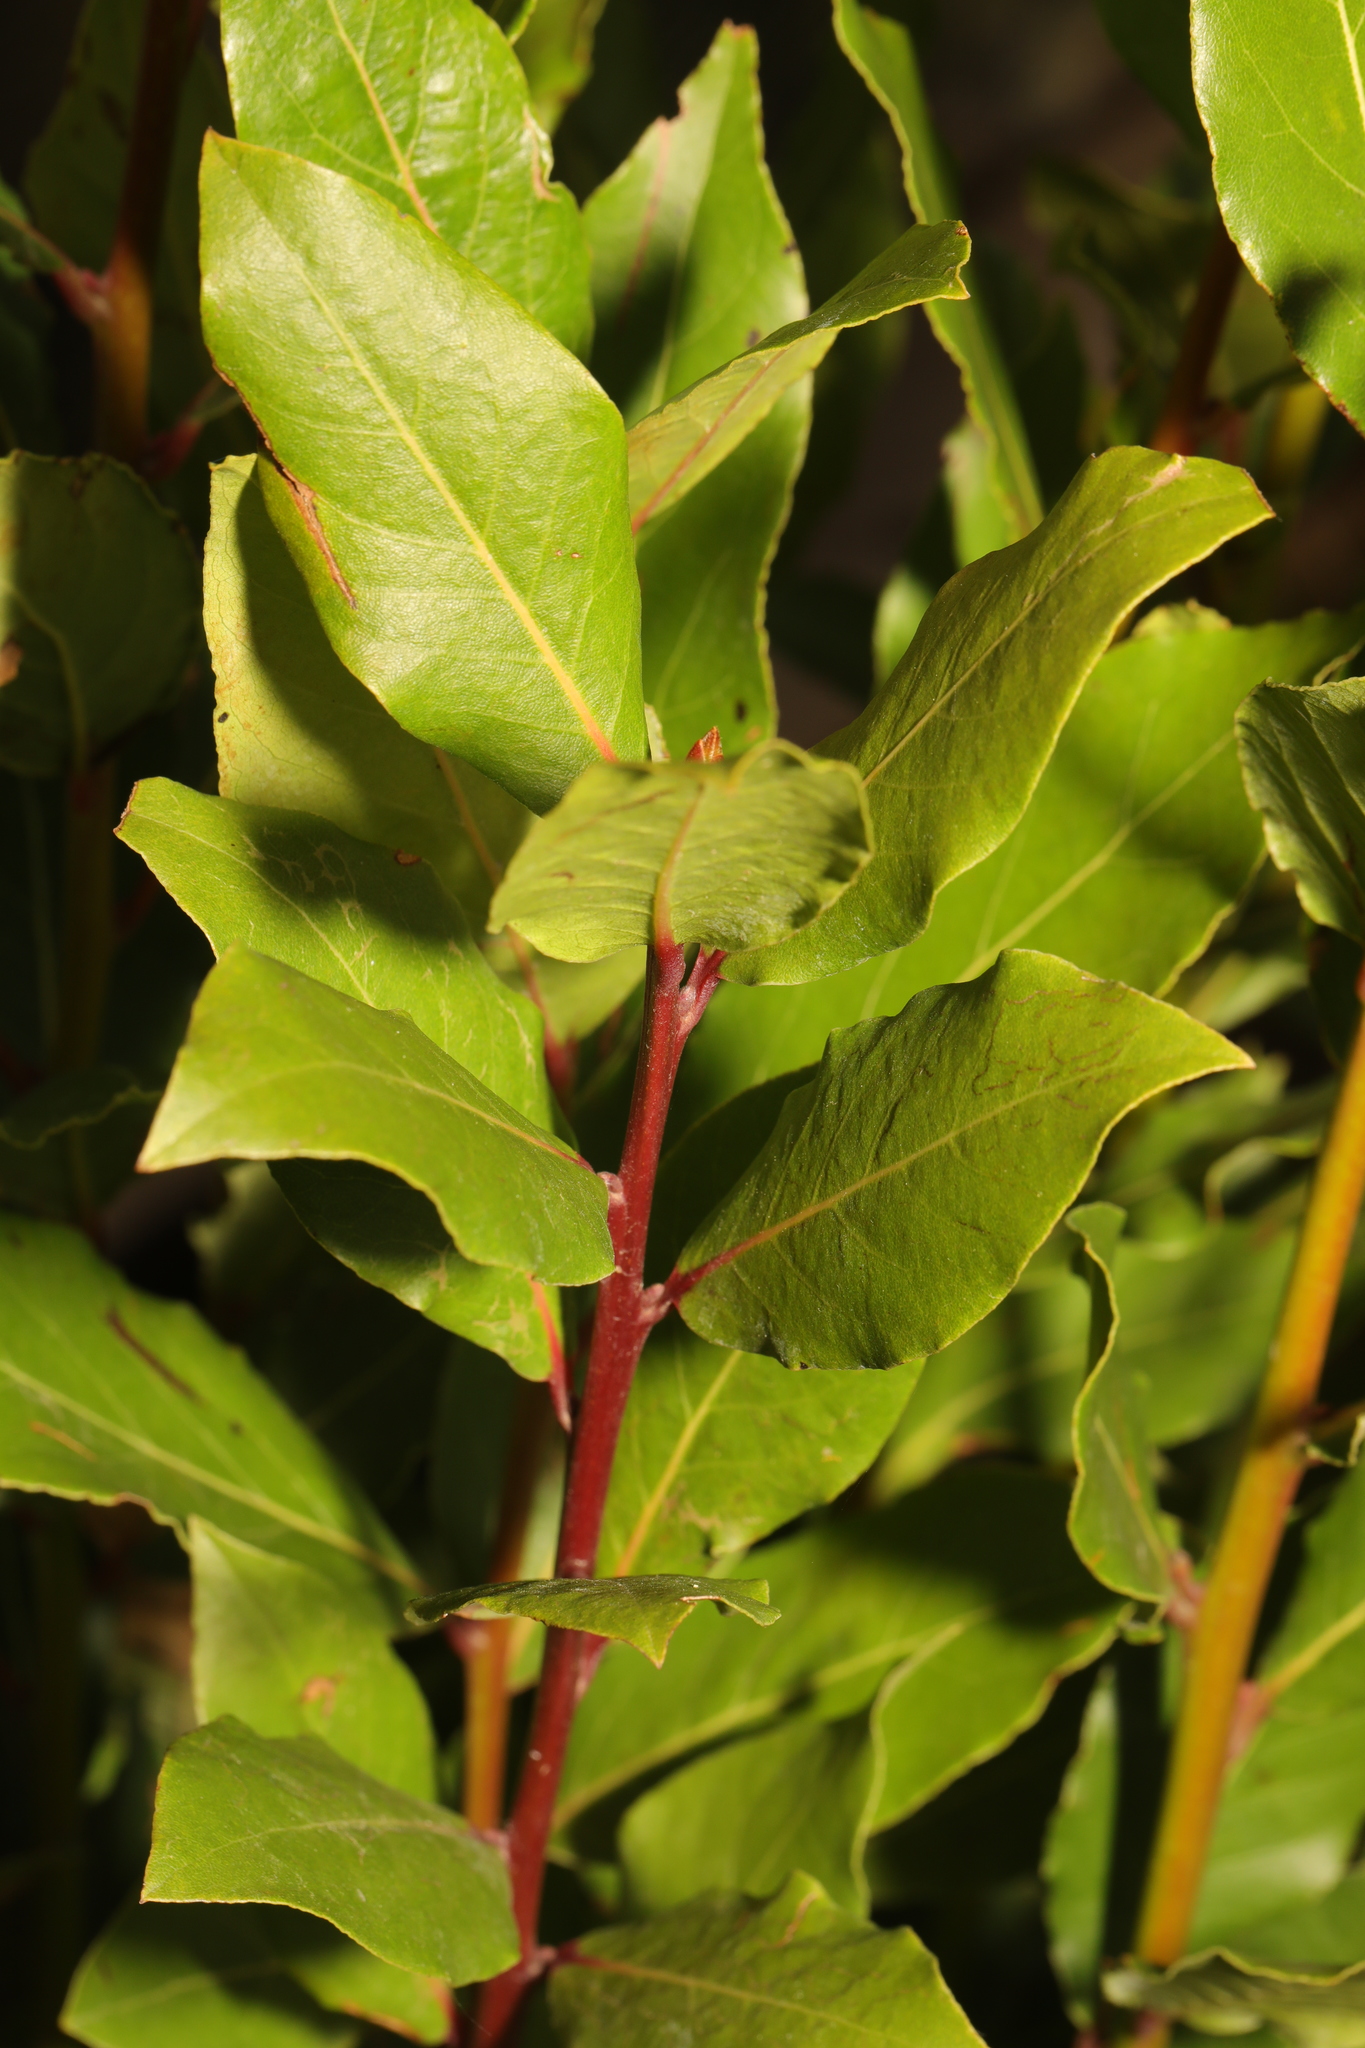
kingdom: Plantae
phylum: Tracheophyta
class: Magnoliopsida
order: Laurales
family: Lauraceae
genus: Laurus
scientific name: Laurus nobilis
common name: Bay
